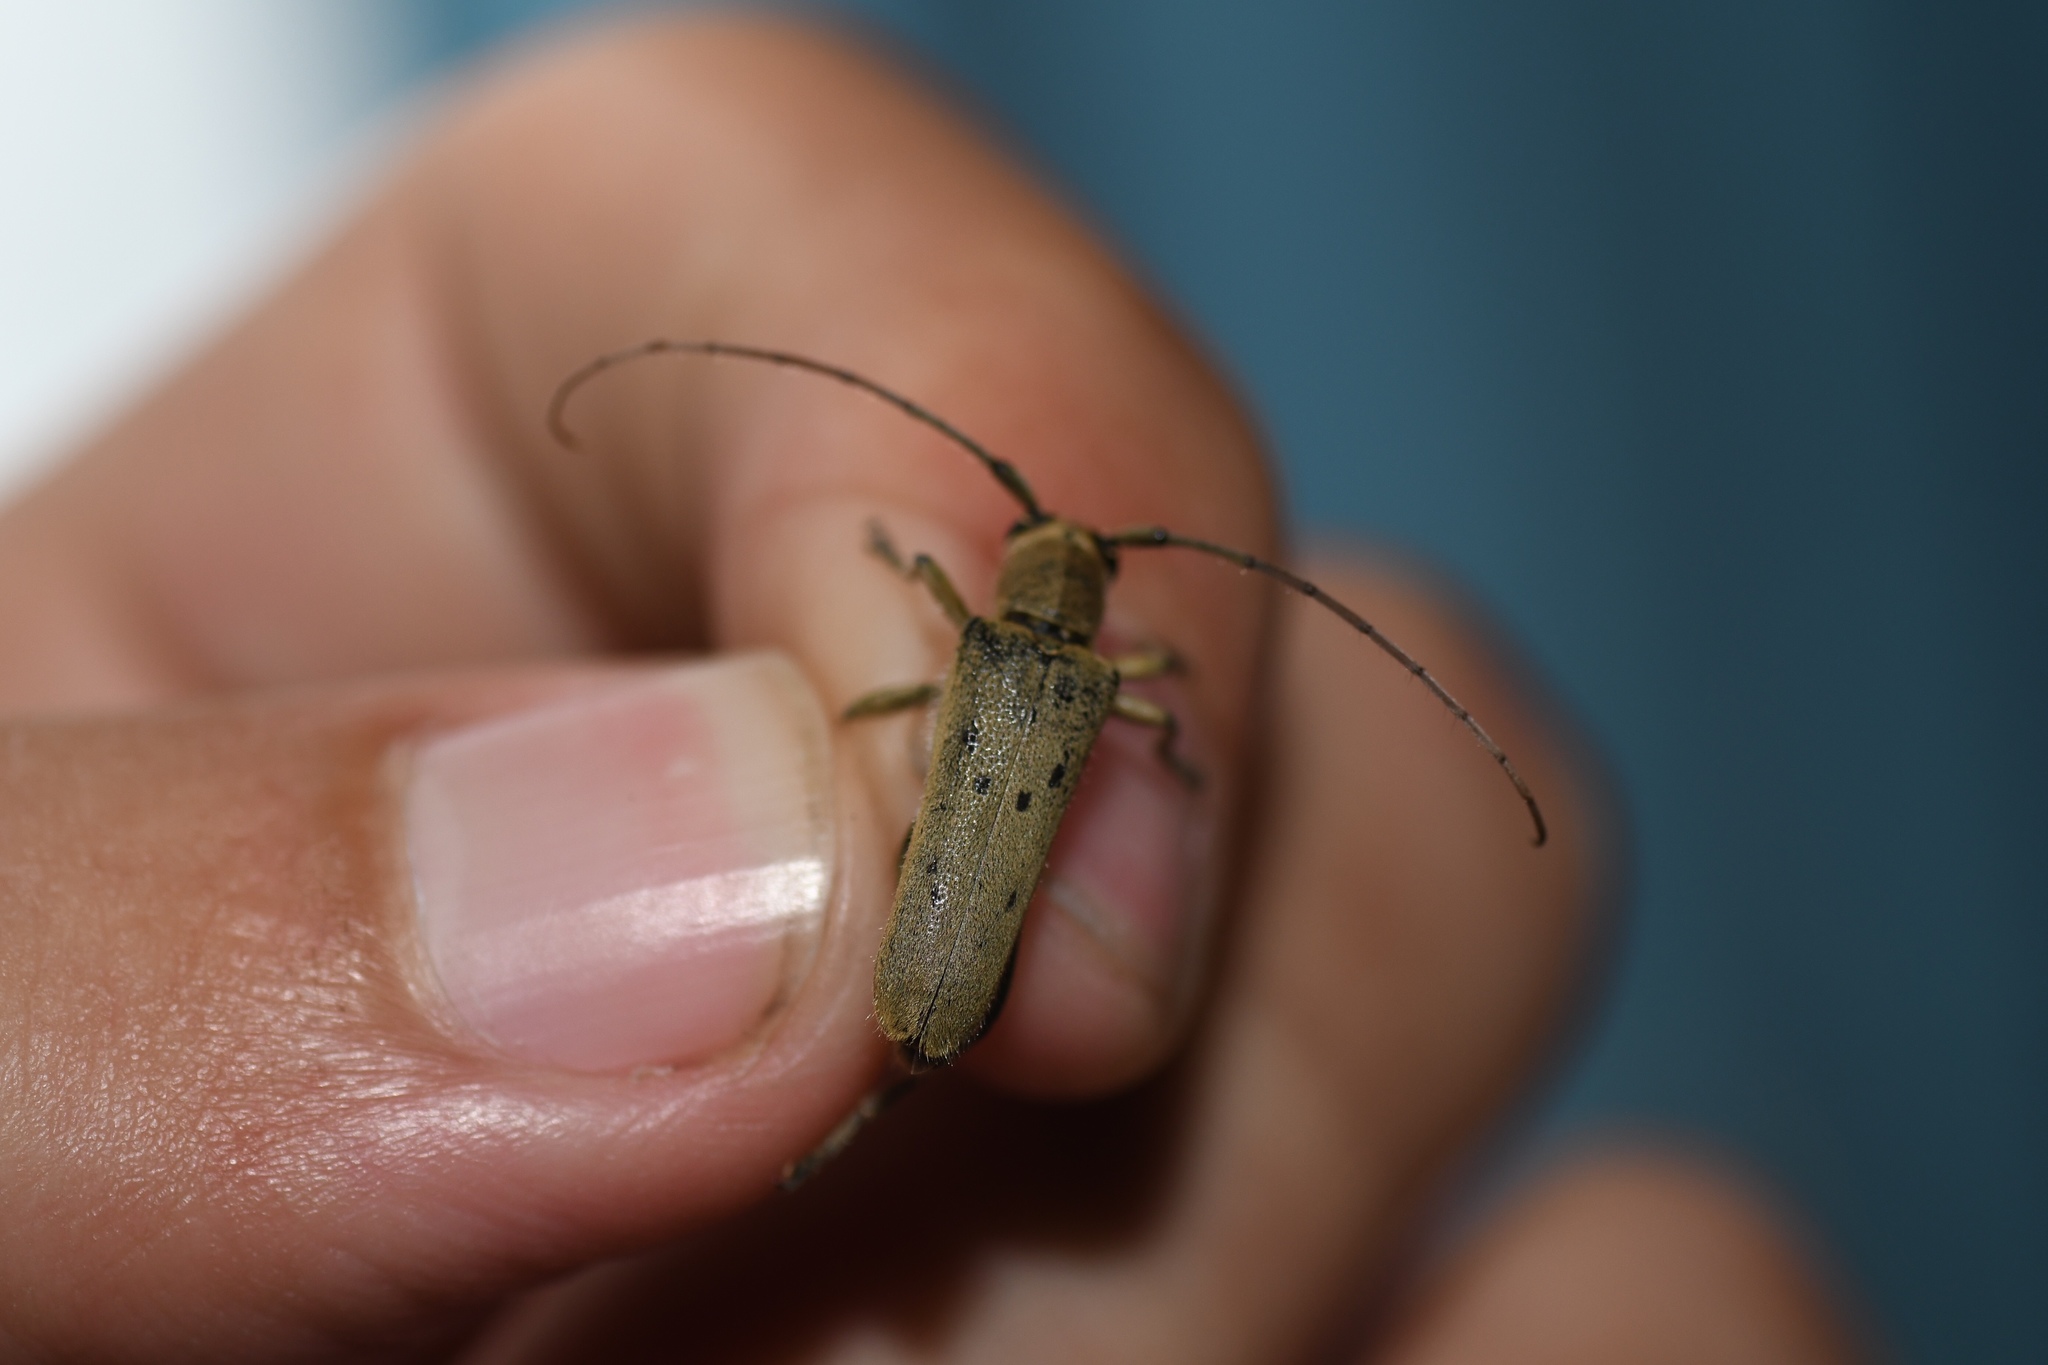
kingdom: Animalia
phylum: Arthropoda
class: Insecta
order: Coleoptera
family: Cerambycidae
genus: Saperda
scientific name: Saperda vestita
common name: Linden borer
